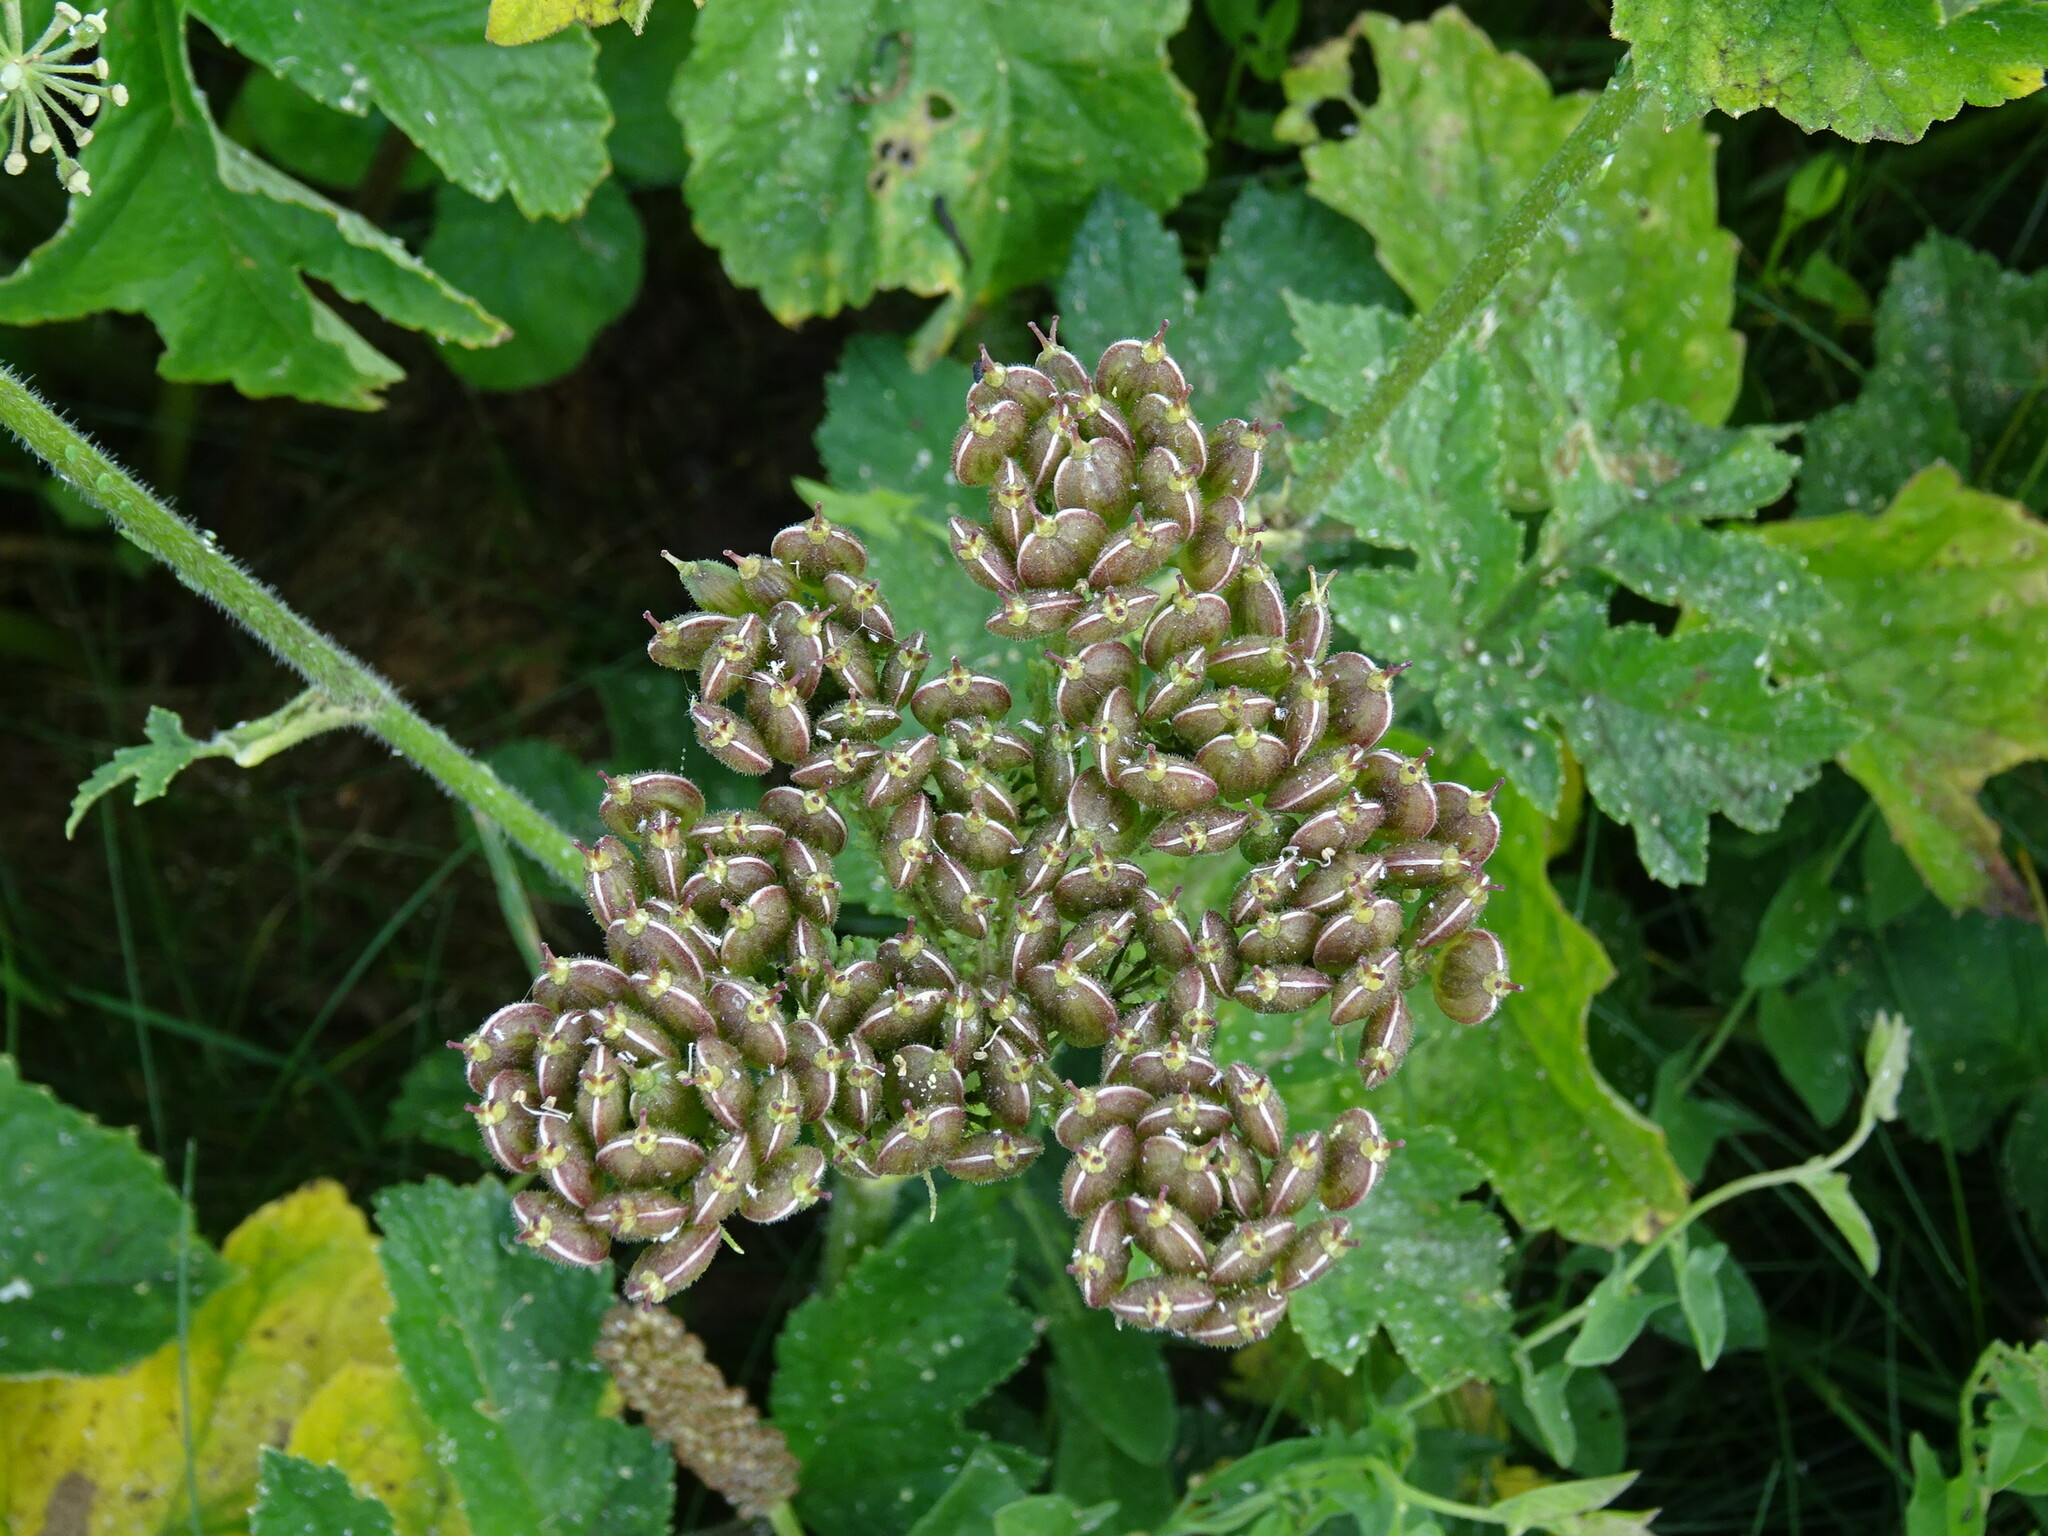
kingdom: Plantae
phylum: Tracheophyta
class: Magnoliopsida
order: Apiales
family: Apiaceae
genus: Heracleum
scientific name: Heracleum sphondylium
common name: Hogweed
